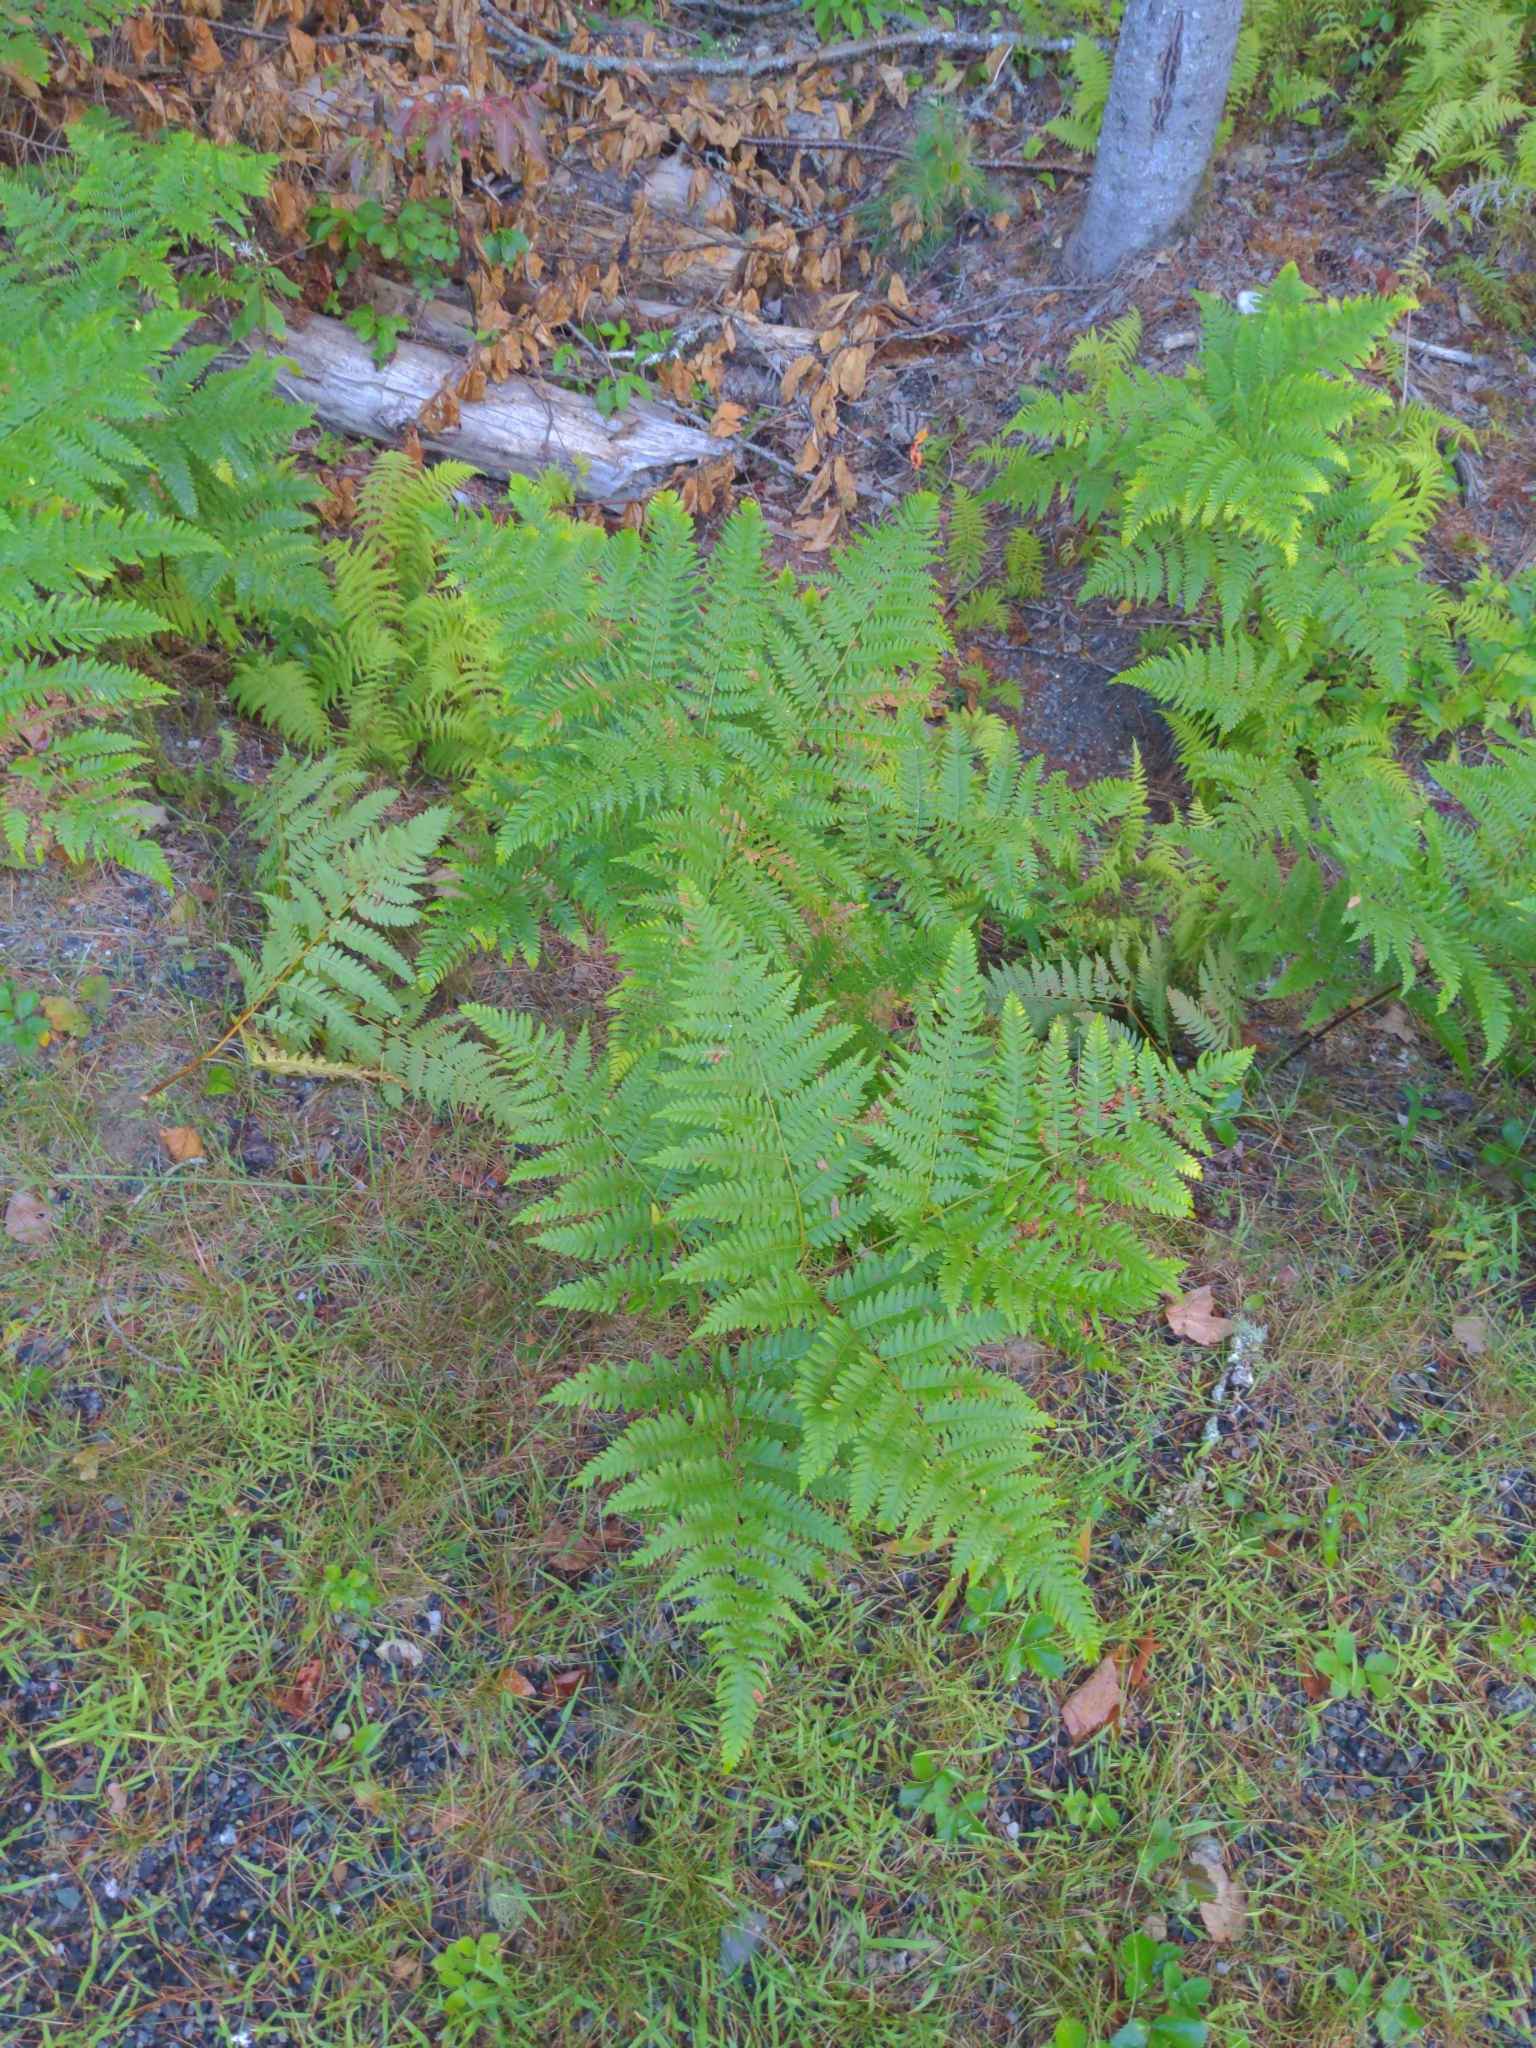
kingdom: Plantae
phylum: Tracheophyta
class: Polypodiopsida
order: Polypodiales
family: Dennstaedtiaceae
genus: Pteridium
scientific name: Pteridium aquilinum
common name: Bracken
